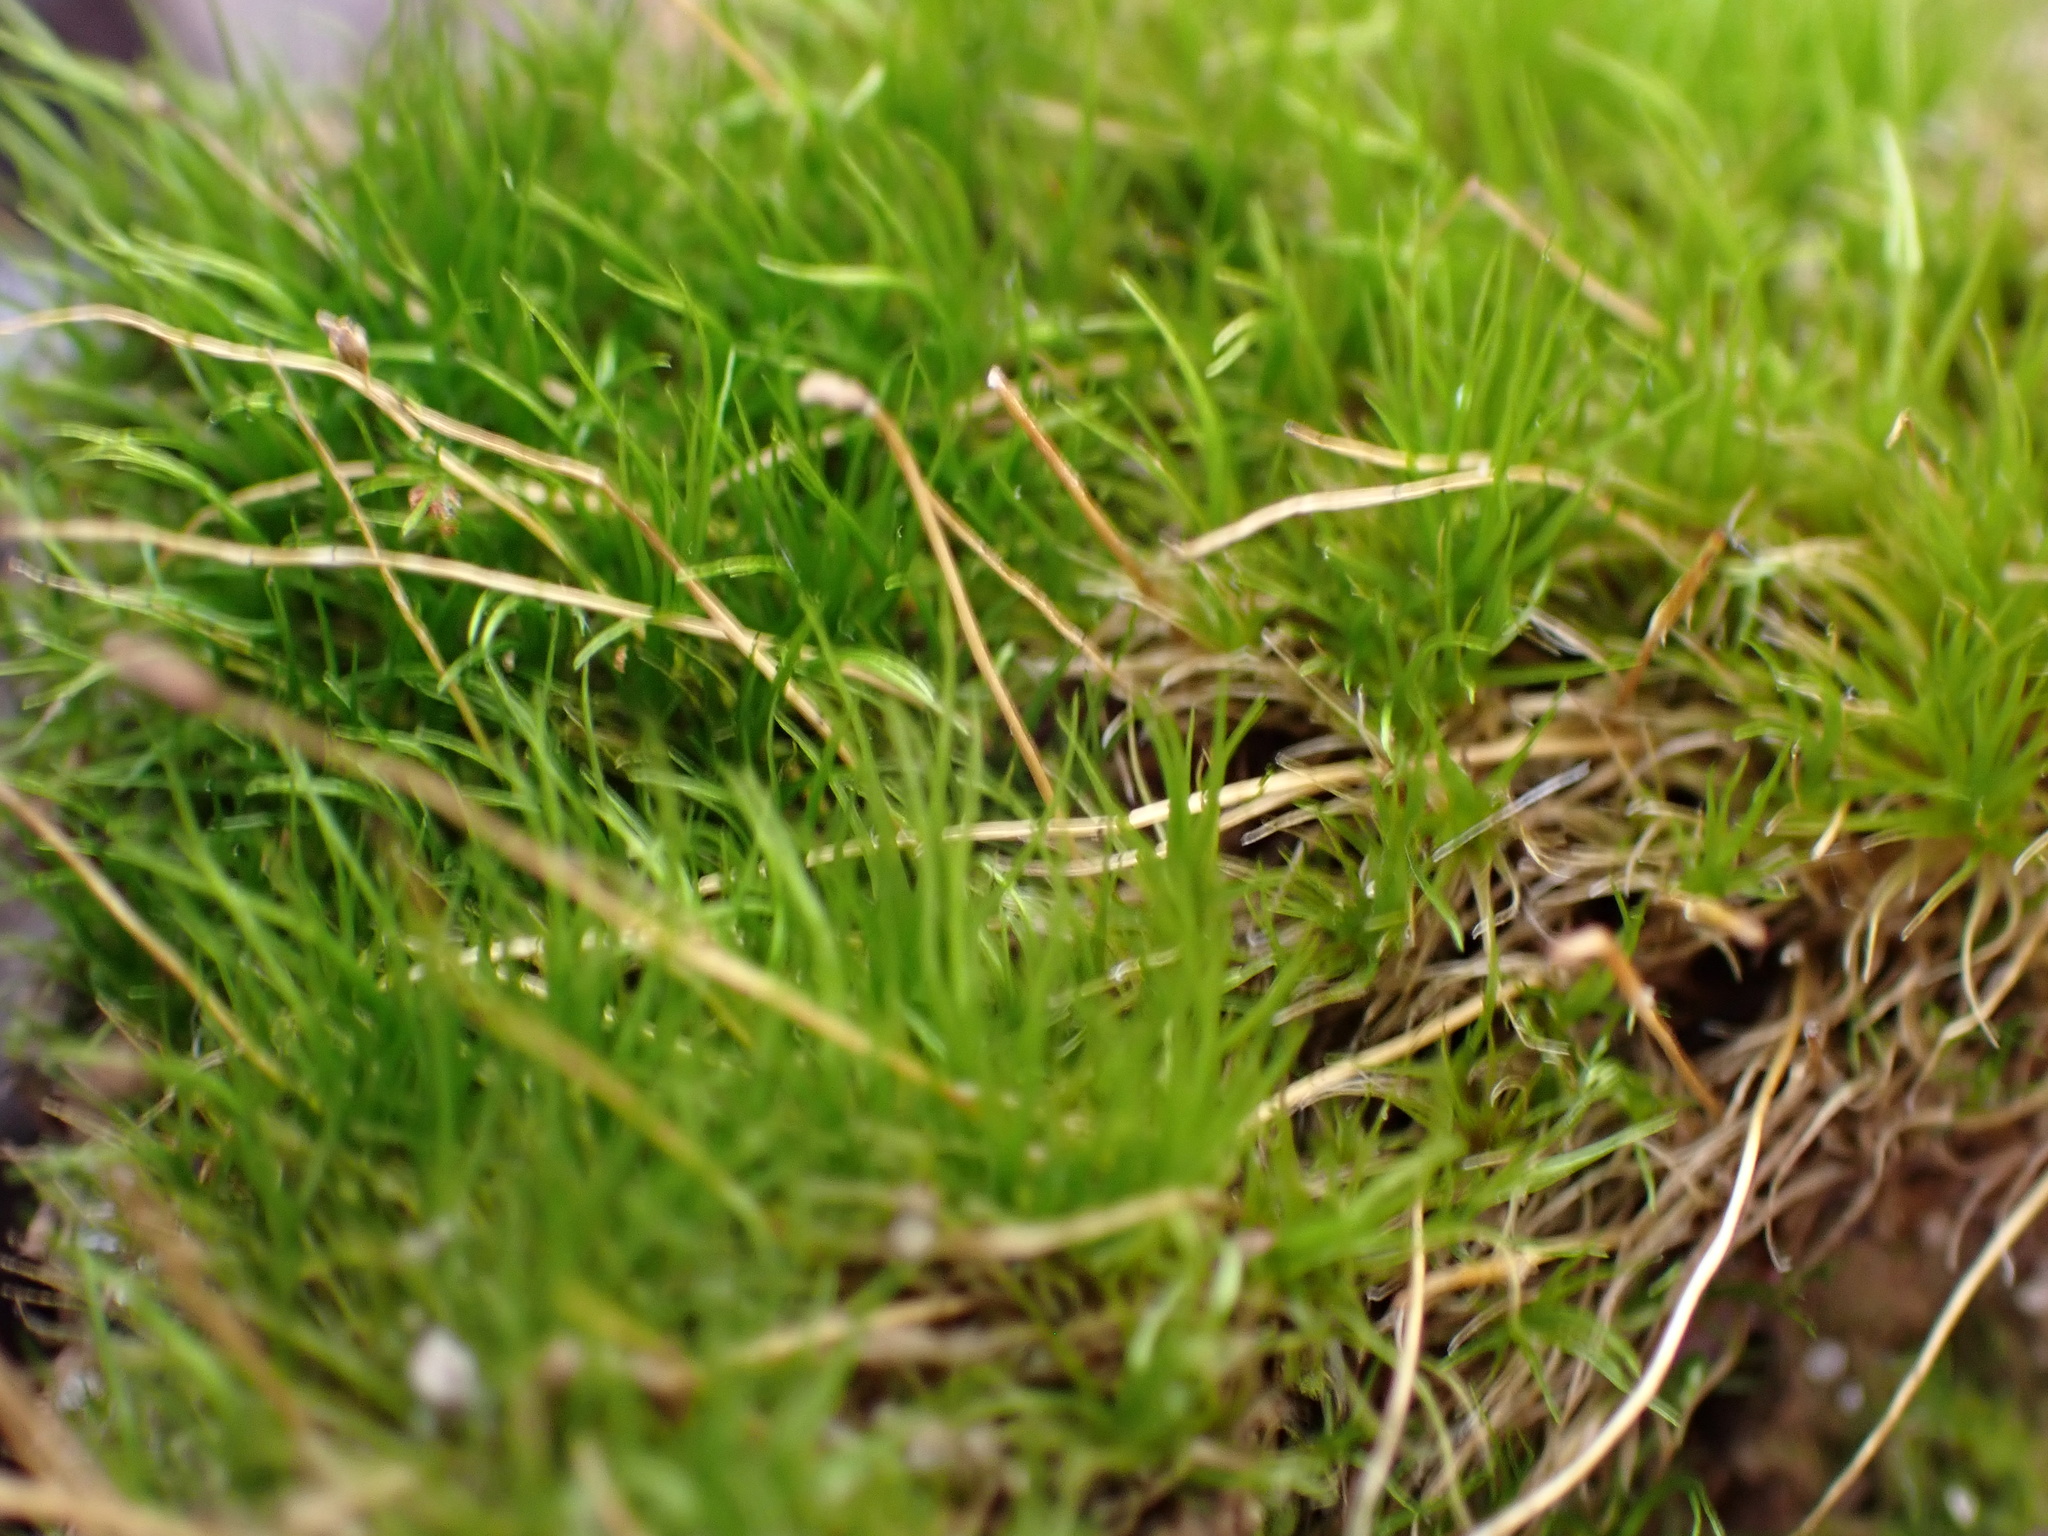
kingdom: Plantae
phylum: Bryophyta
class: Bryopsida
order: Dicranales
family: Ditrichaceae
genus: Ditrichum
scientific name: Ditrichum pallidum
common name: Pale cow-hair moss
